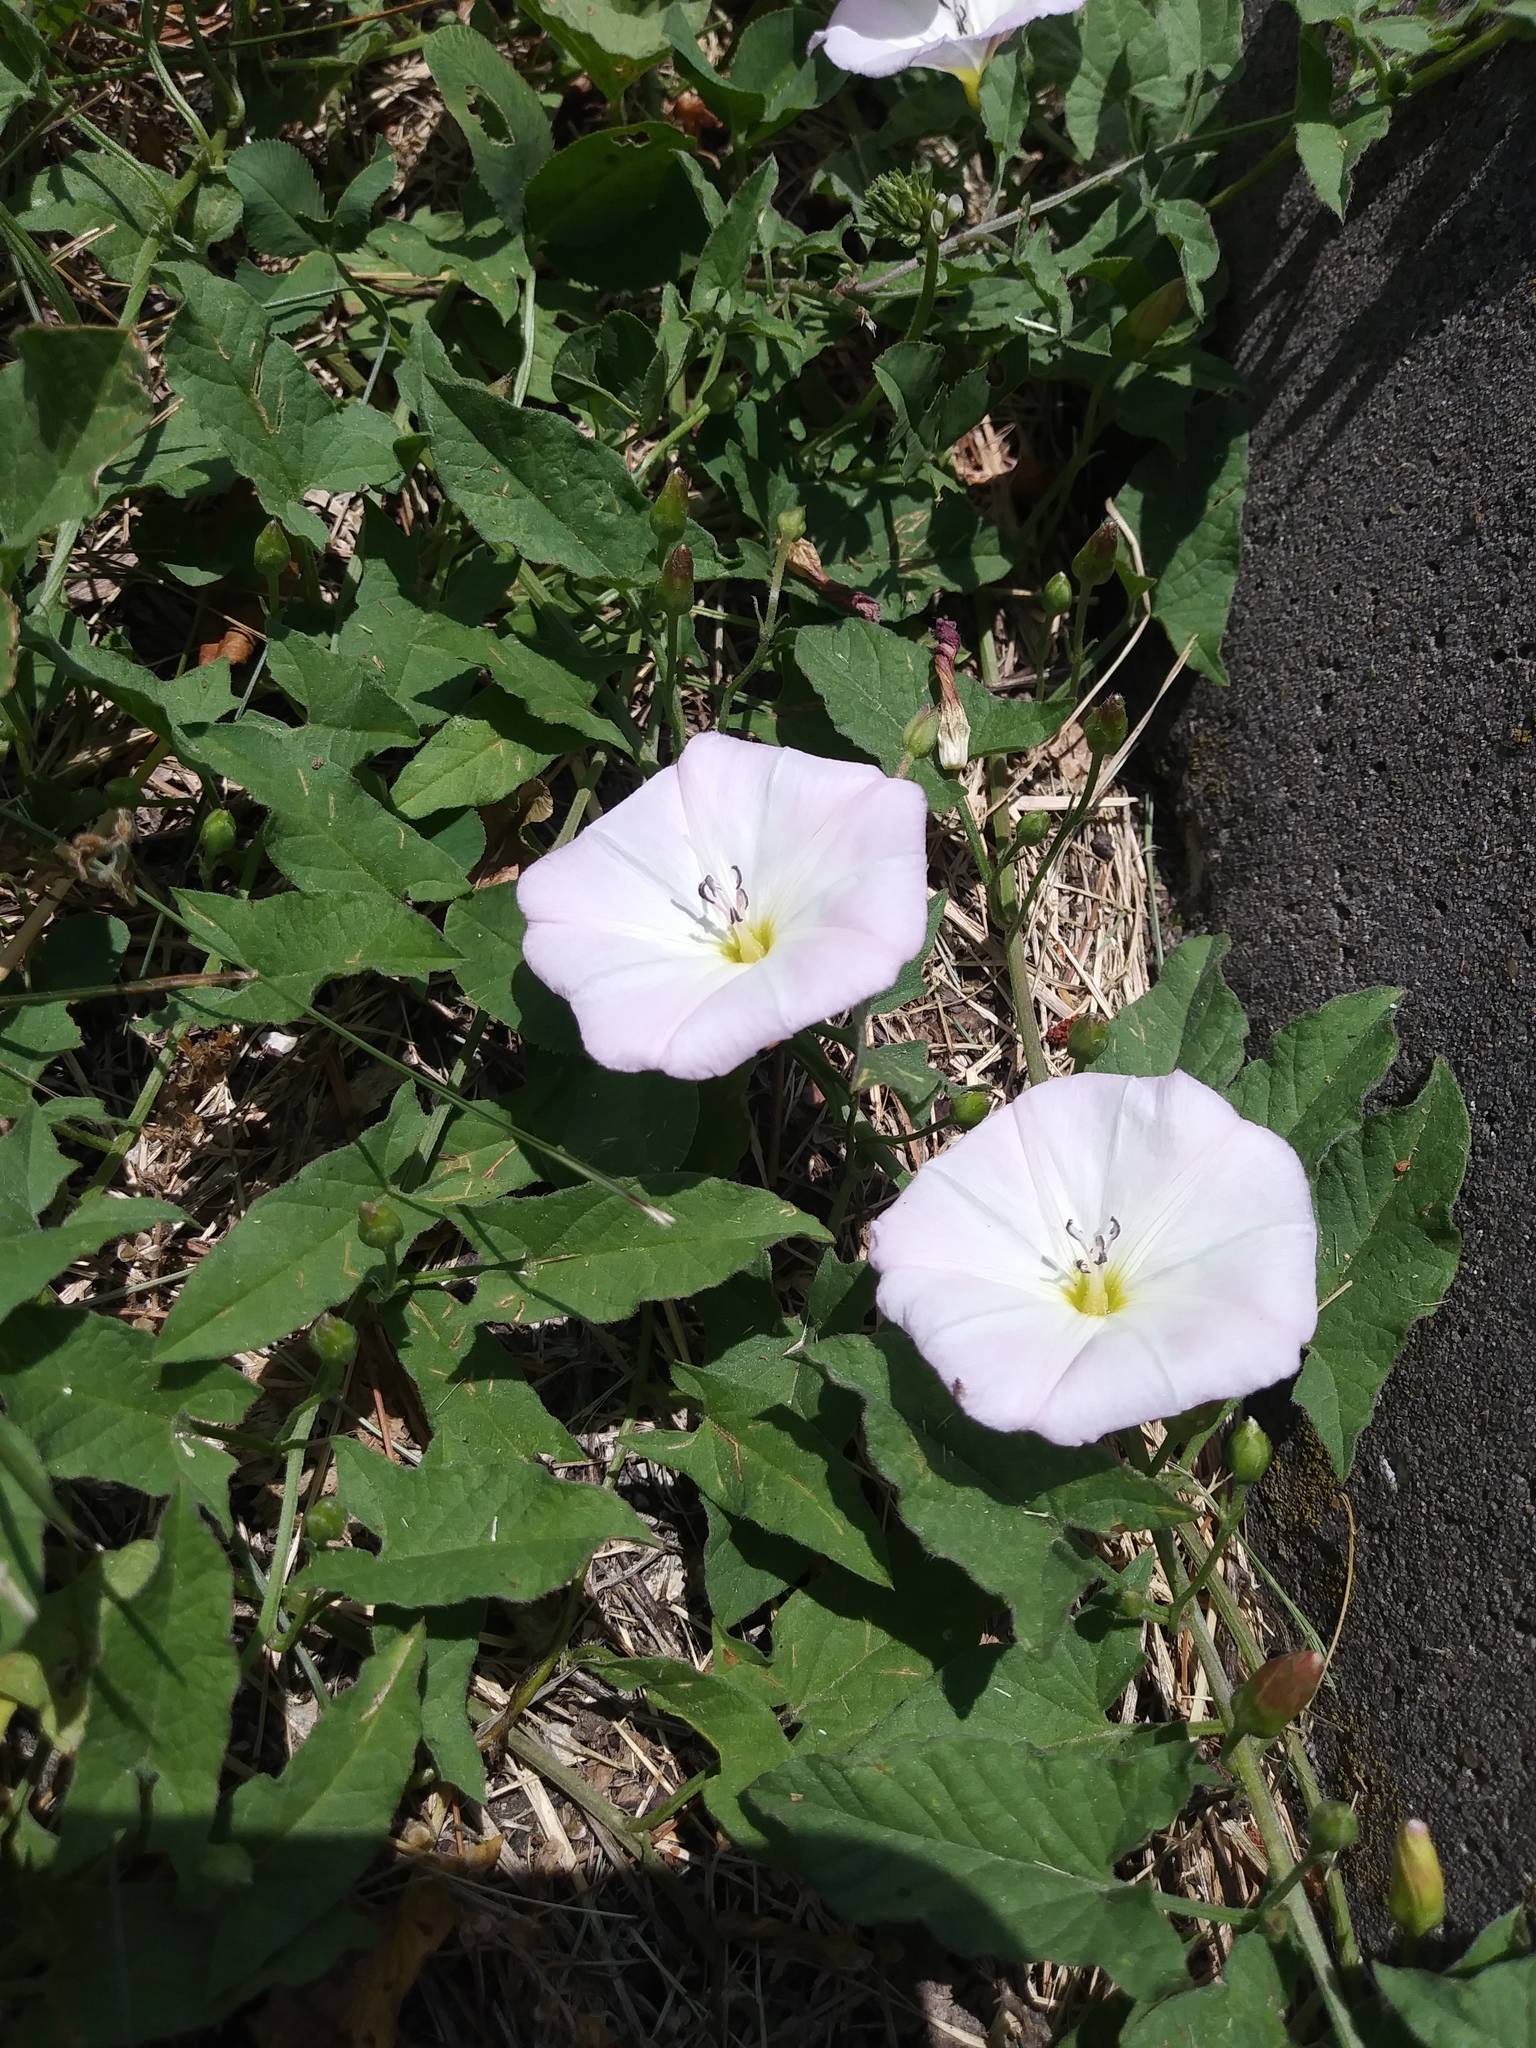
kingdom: Plantae
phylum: Tracheophyta
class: Magnoliopsida
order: Solanales
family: Convolvulaceae
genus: Convolvulus
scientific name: Convolvulus arvensis
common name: Field bindweed
